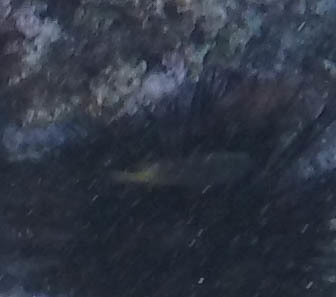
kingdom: Animalia
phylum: Chordata
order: Perciformes
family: Pomacentridae
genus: Plectroglyphidodon
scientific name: Plectroglyphidodon imparipennis
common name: Brighteye damsel
